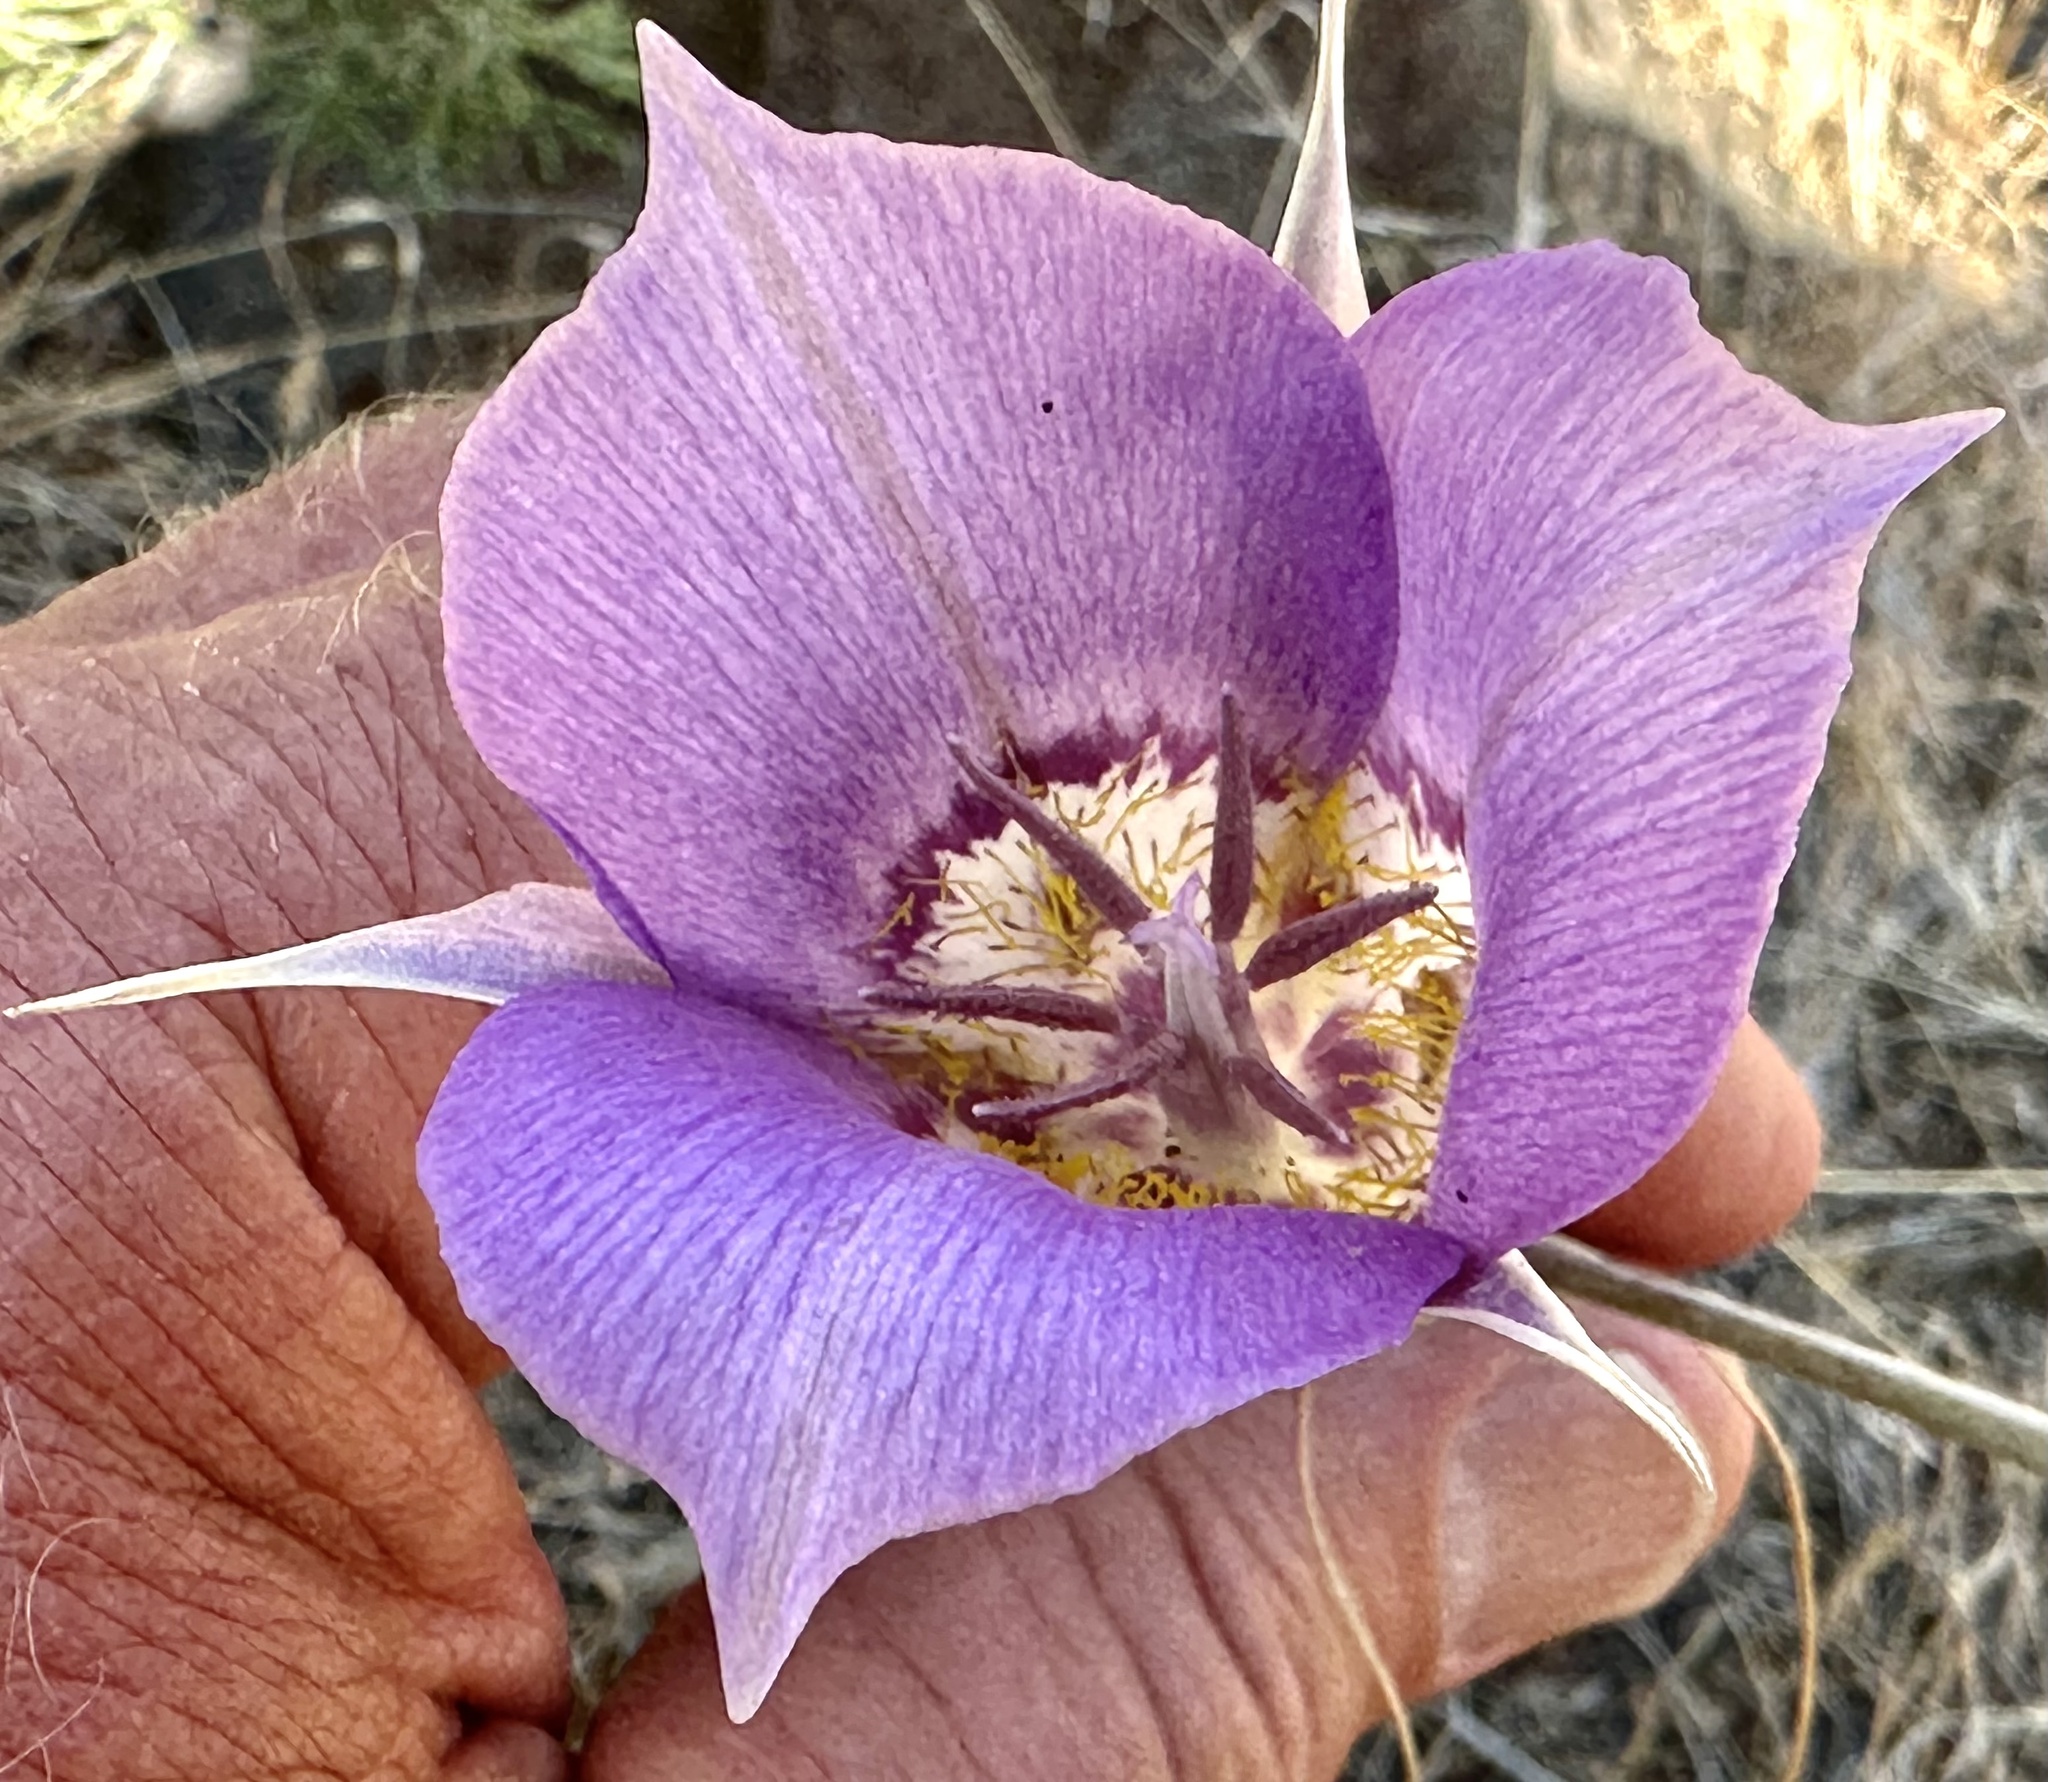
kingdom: Plantae
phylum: Tracheophyta
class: Liliopsida
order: Liliales
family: Liliaceae
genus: Calochortus
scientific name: Calochortus macrocarpus
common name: Green-band mariposa lily
